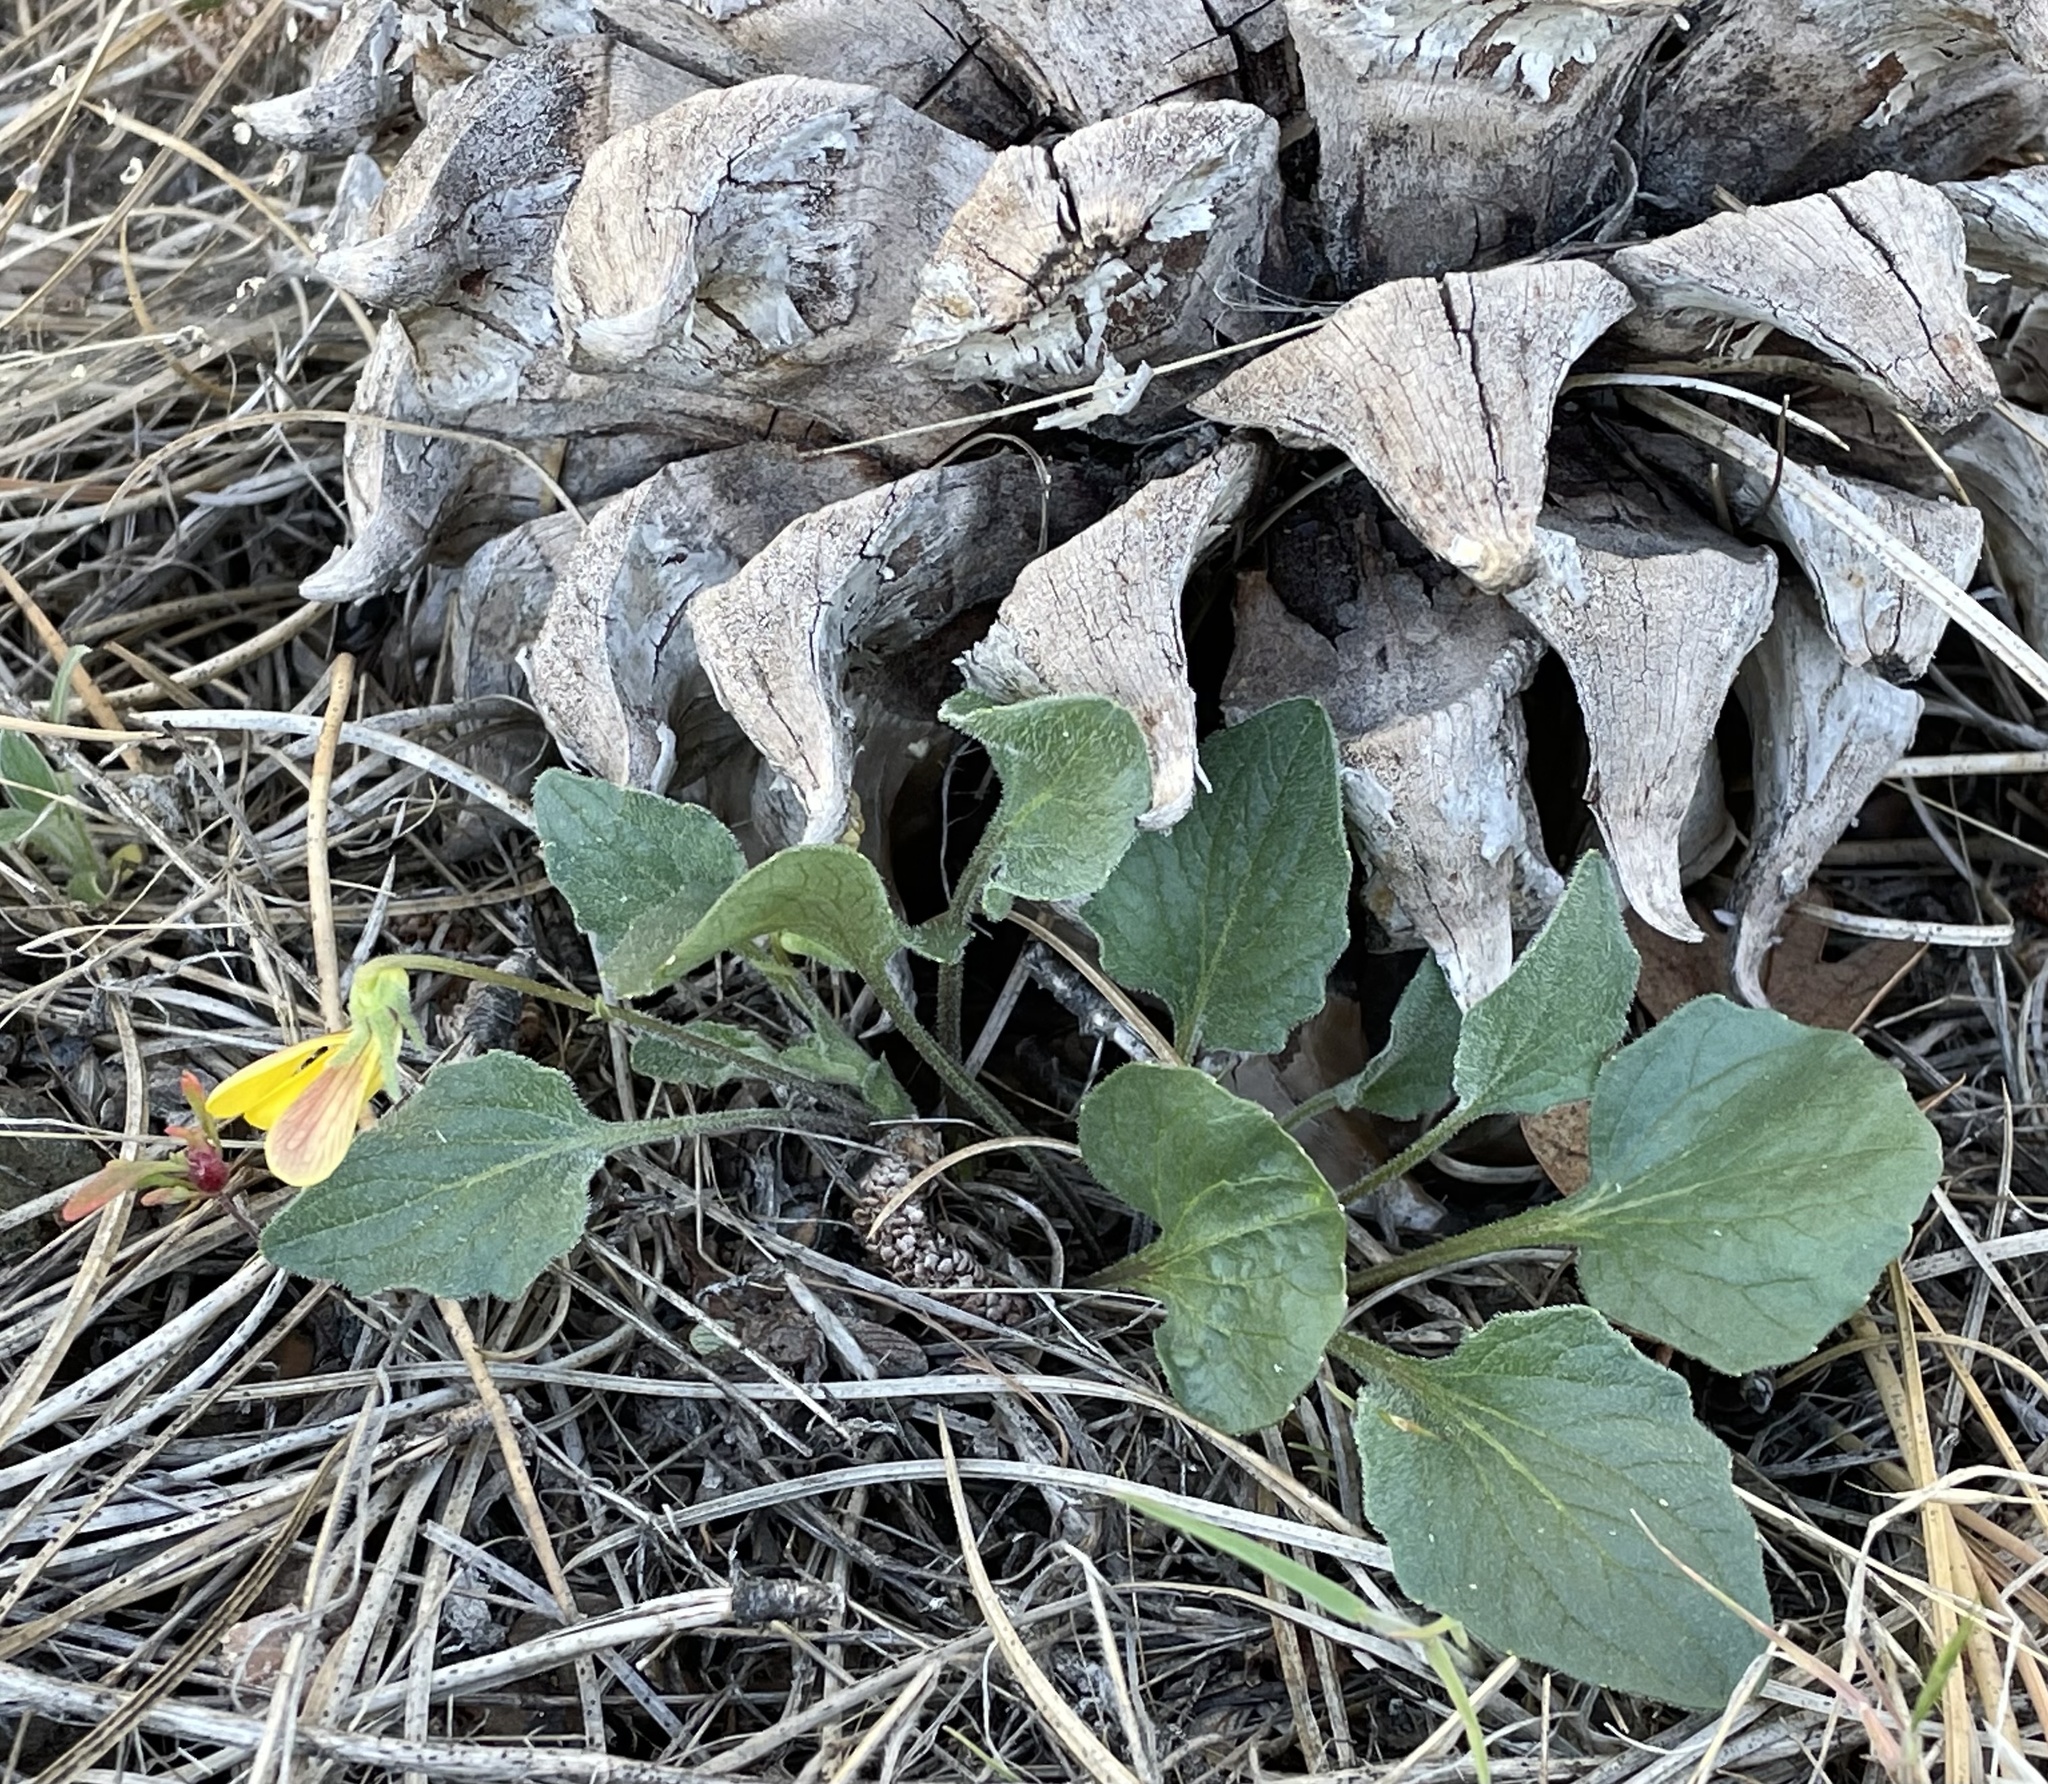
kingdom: Plantae
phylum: Tracheophyta
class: Magnoliopsida
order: Malpighiales
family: Violaceae
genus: Viola
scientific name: Viola purpurea
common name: Pine violet
